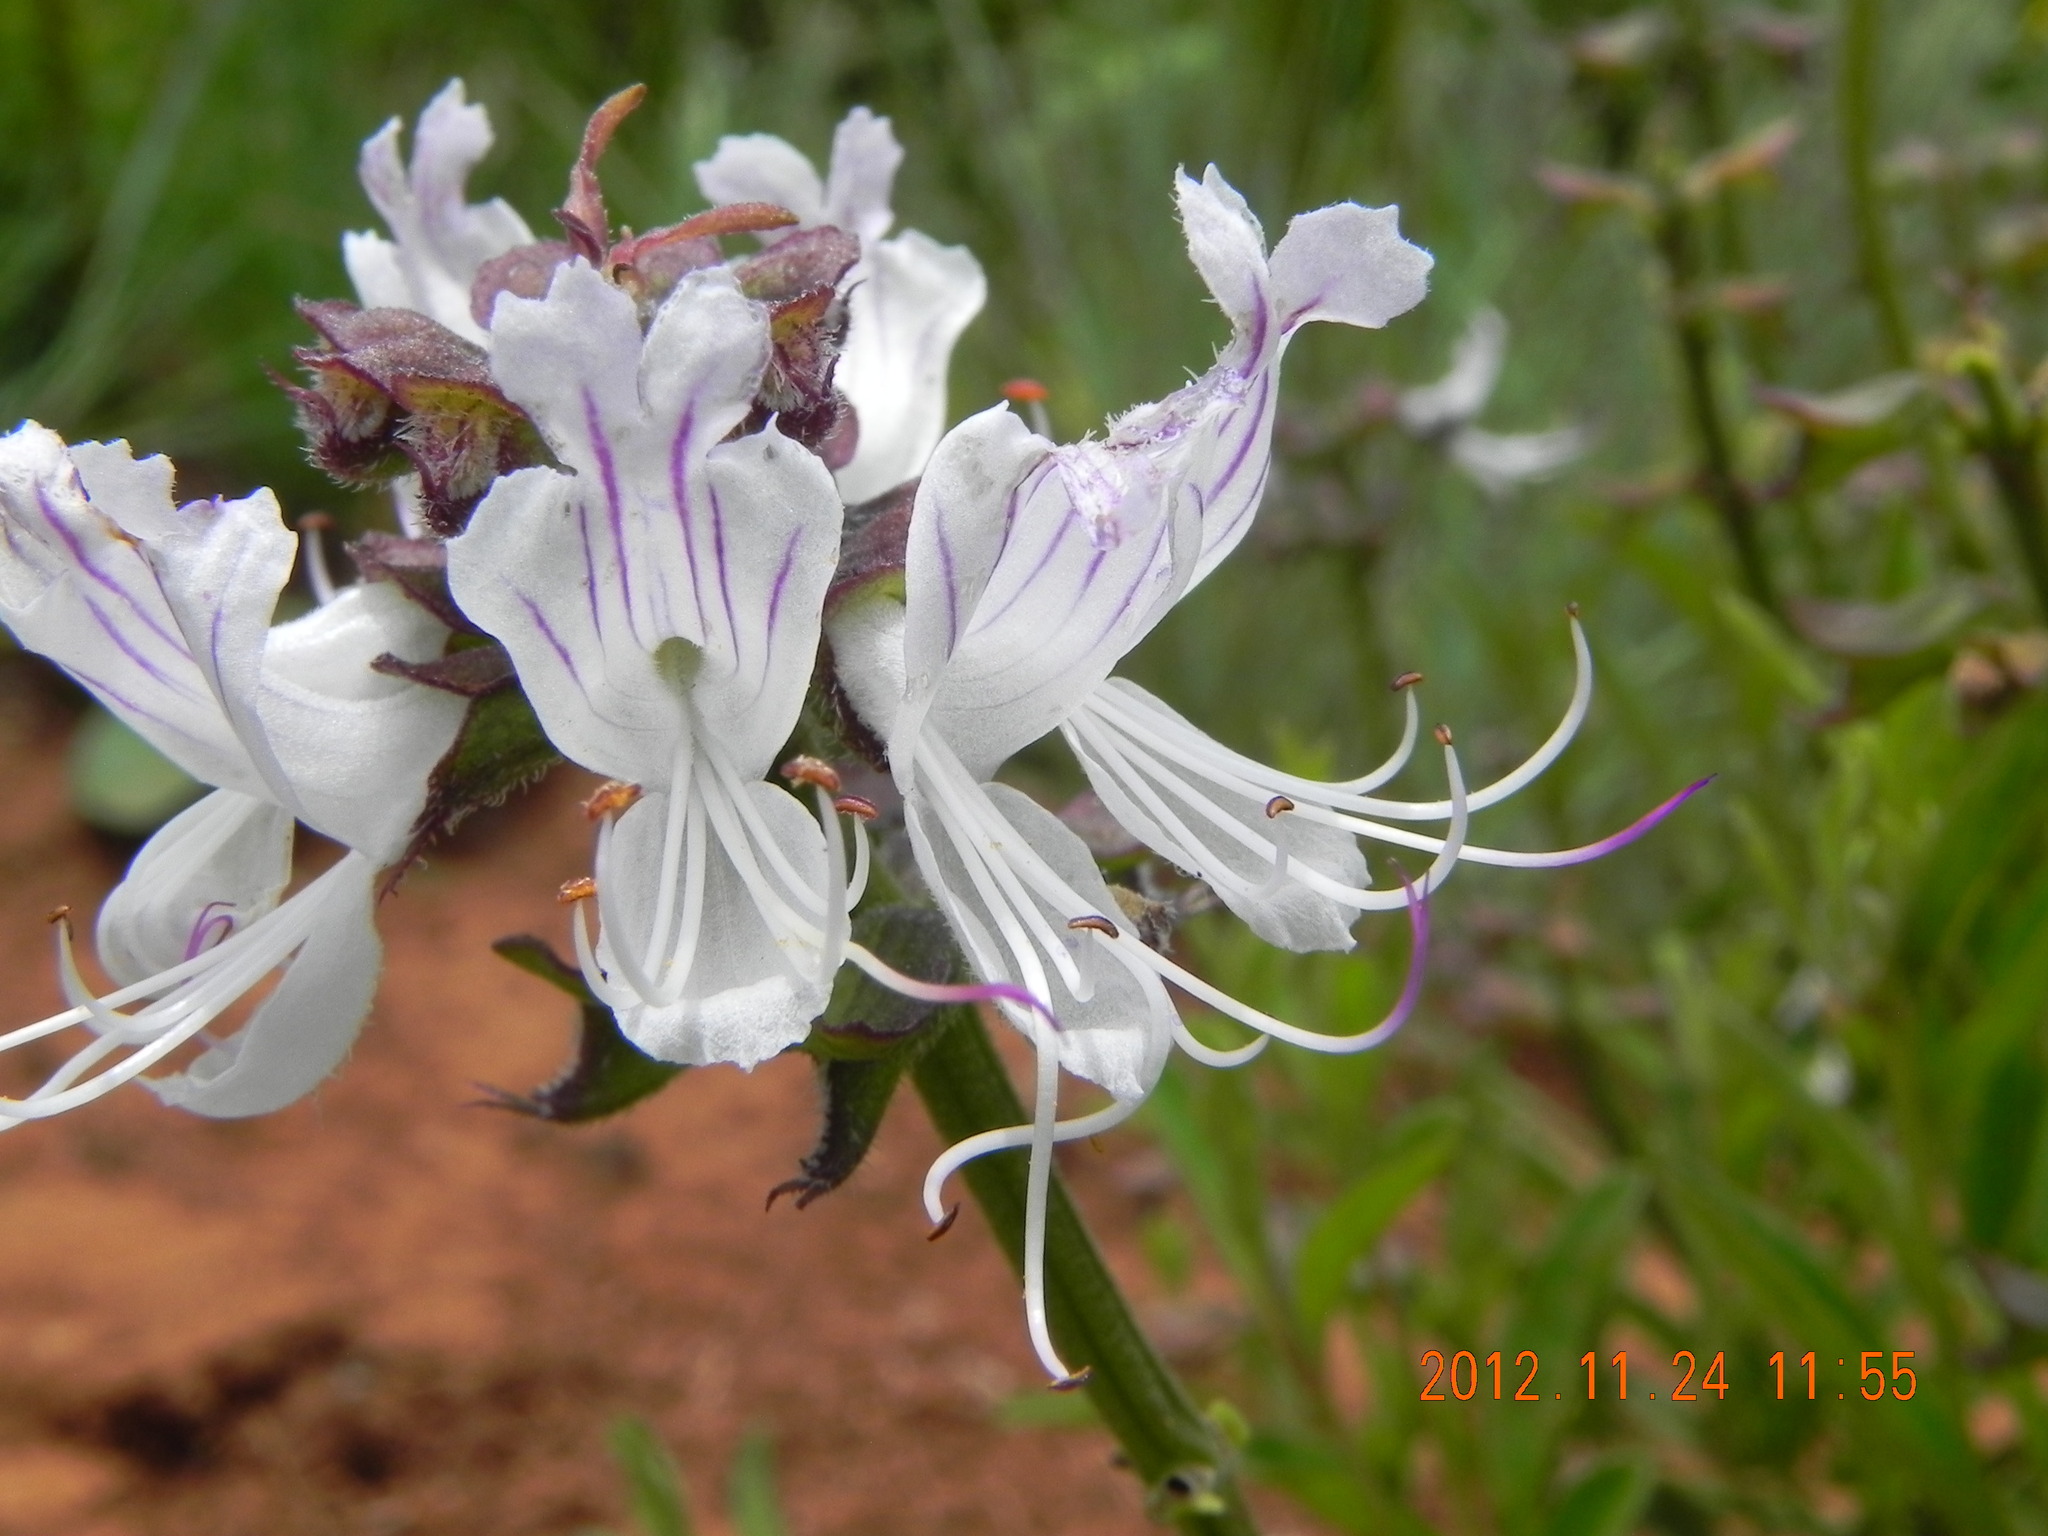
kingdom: Plantae
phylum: Tracheophyta
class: Magnoliopsida
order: Lamiales
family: Lamiaceae
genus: Ocimum
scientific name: Ocimum obovatum
